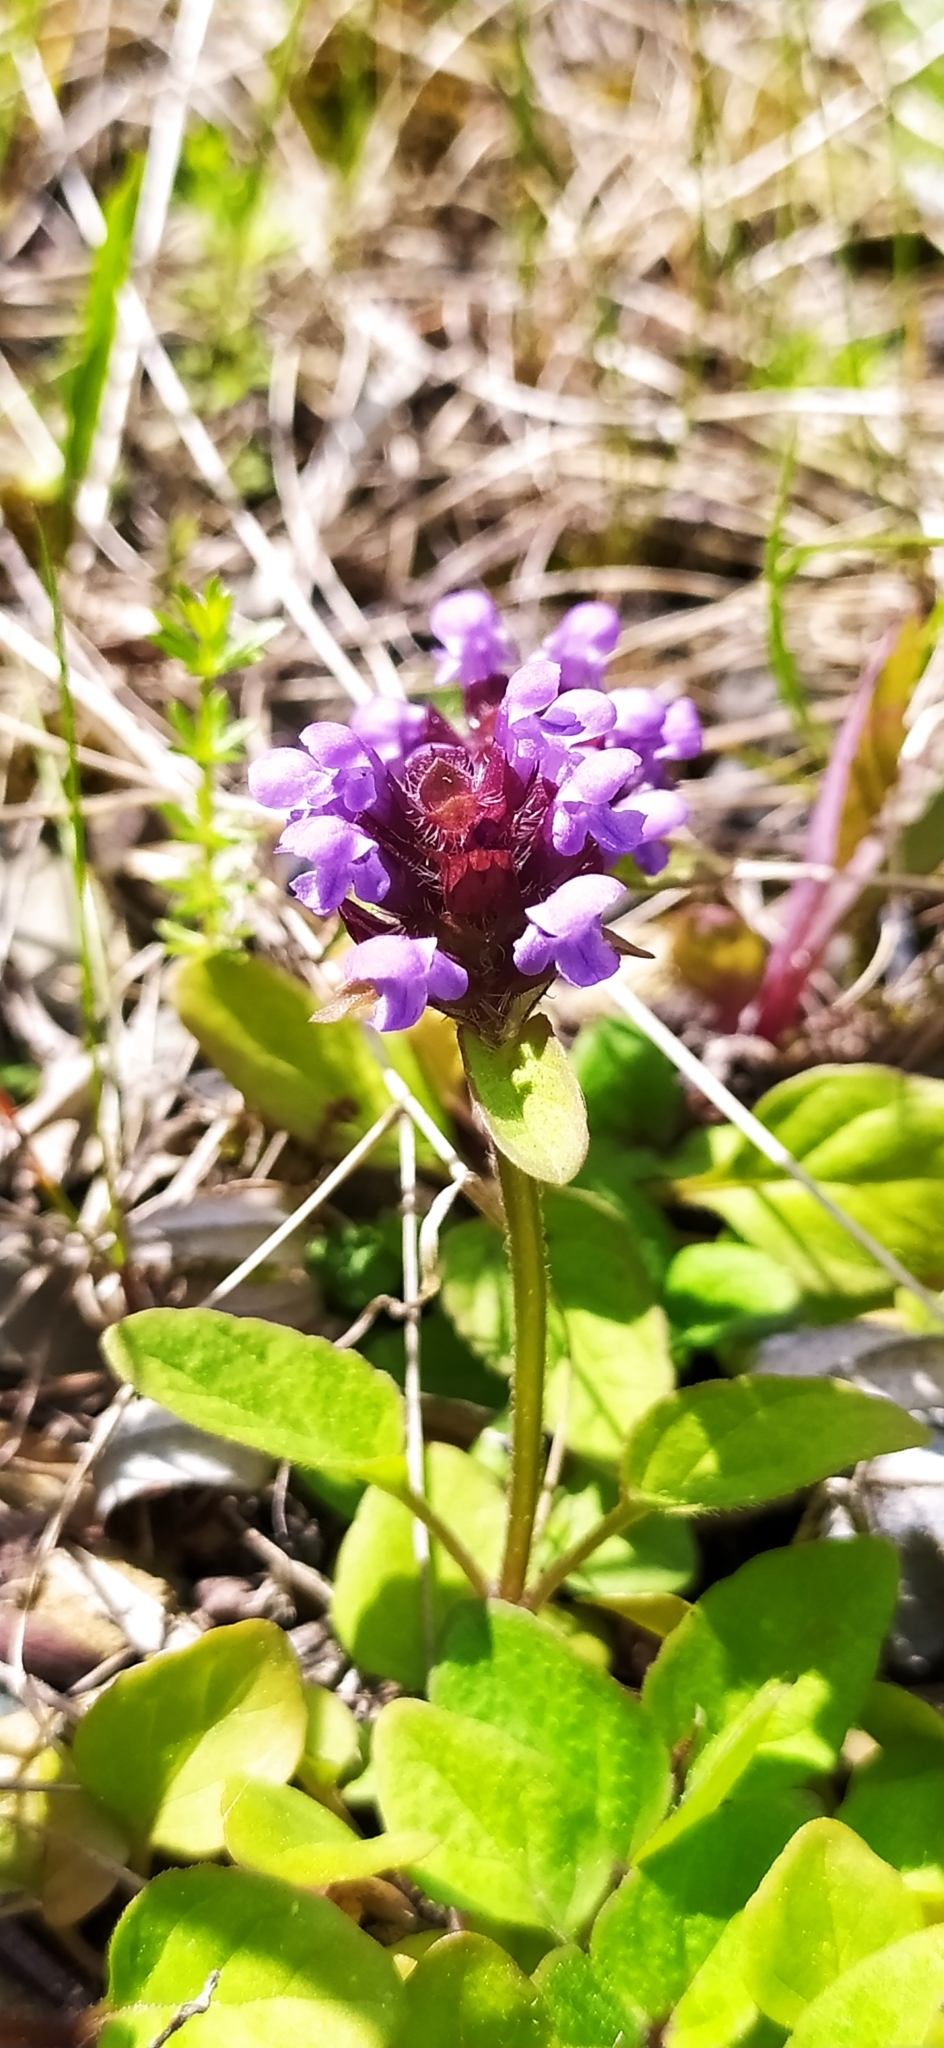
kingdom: Plantae
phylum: Tracheophyta
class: Magnoliopsida
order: Lamiales
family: Lamiaceae
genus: Prunella
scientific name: Prunella vulgaris
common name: Heal-all
